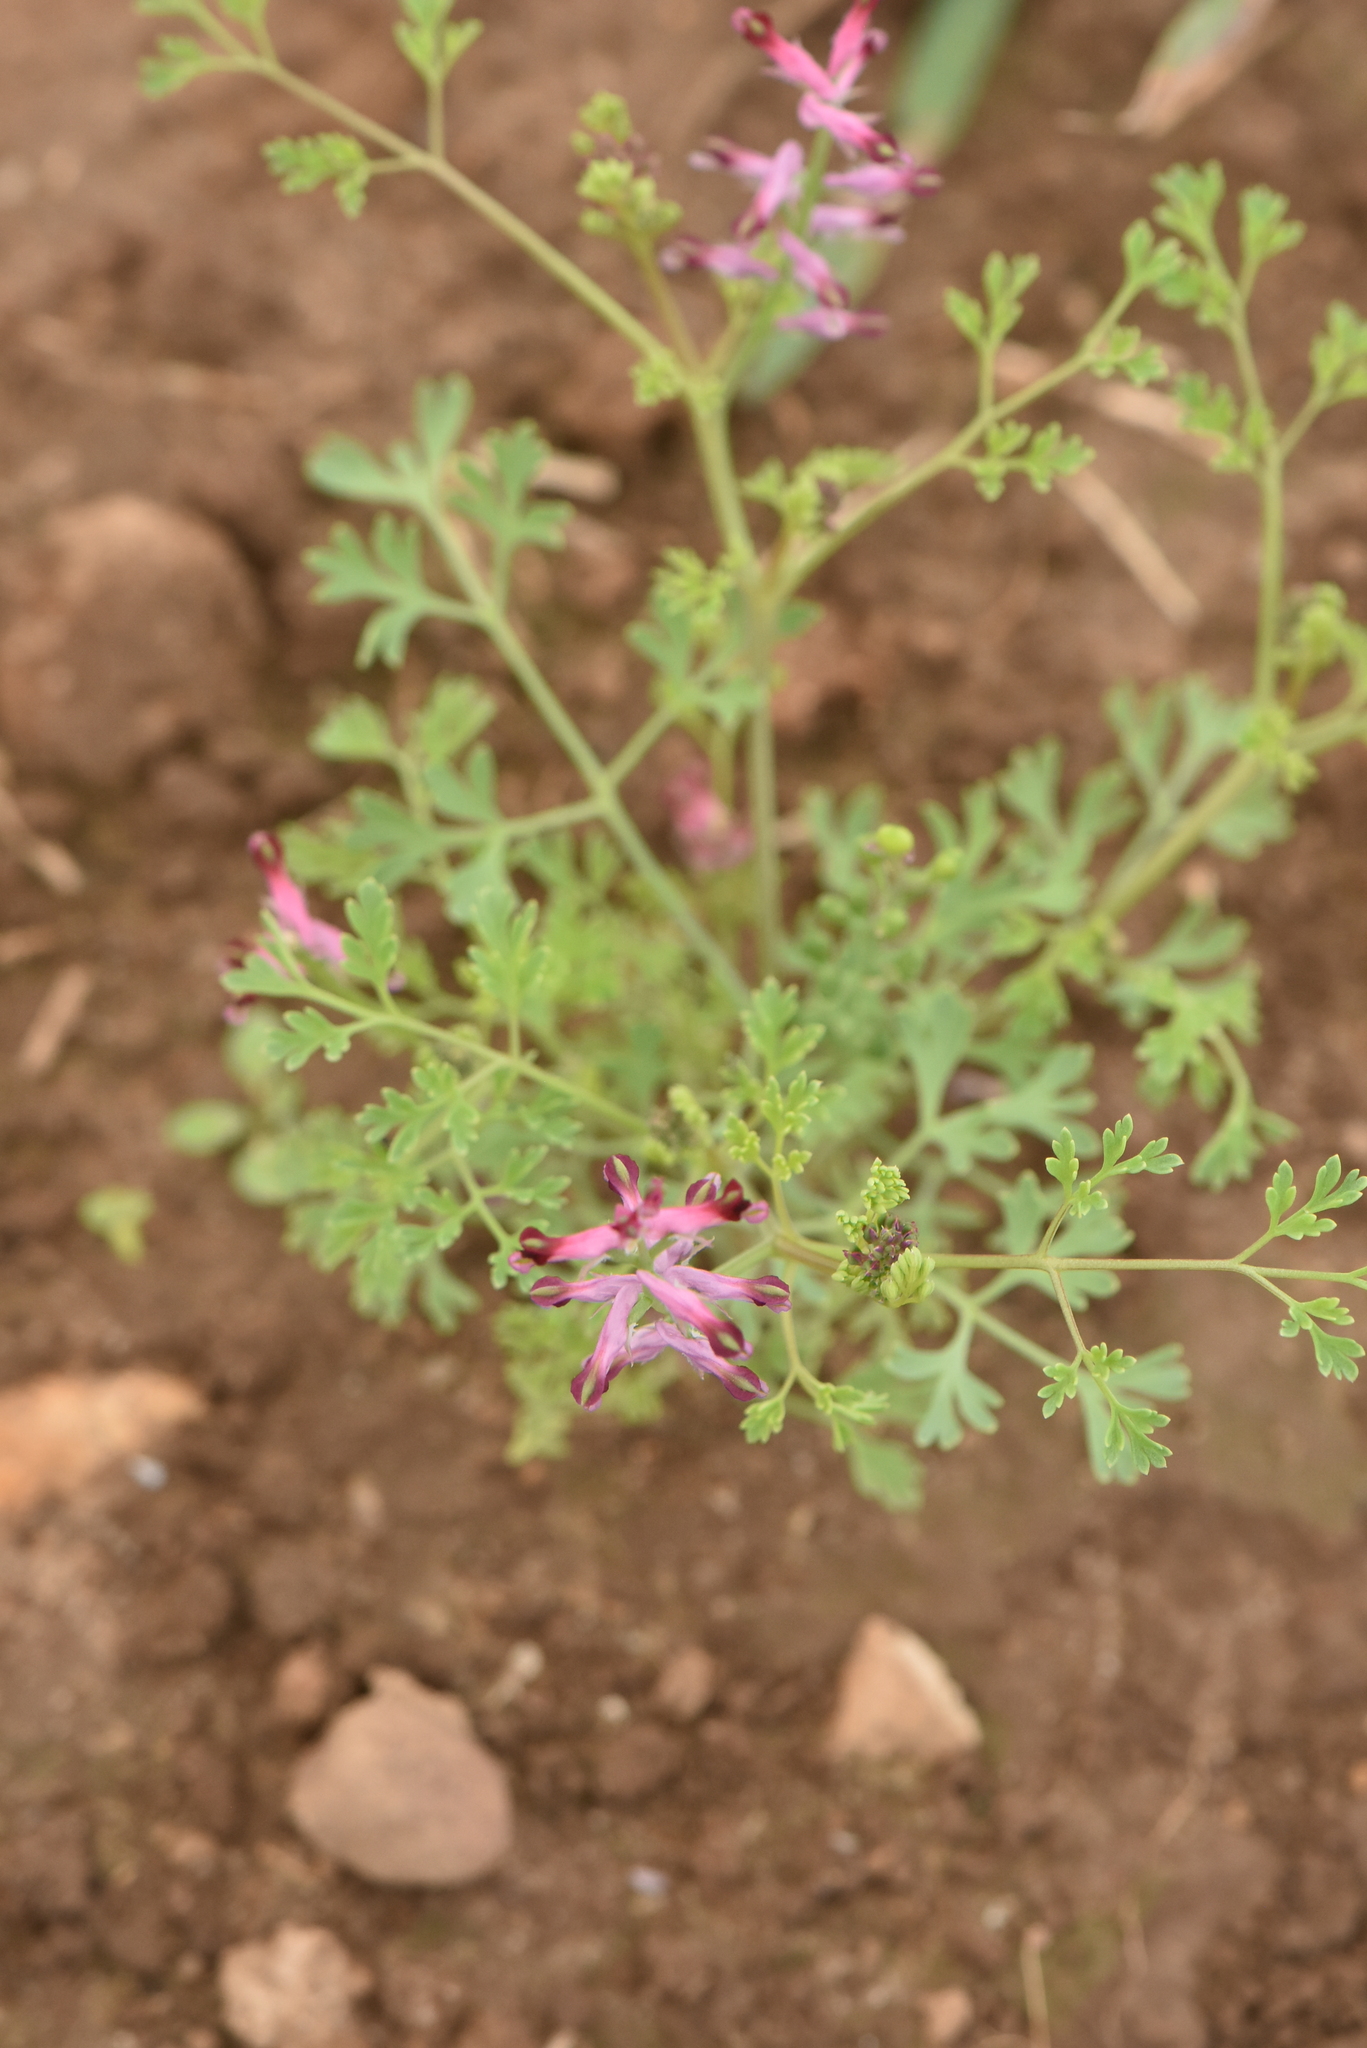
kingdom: Plantae
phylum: Tracheophyta
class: Magnoliopsida
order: Ranunculales
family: Papaveraceae
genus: Fumaria
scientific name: Fumaria officinalis
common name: Common fumitory
